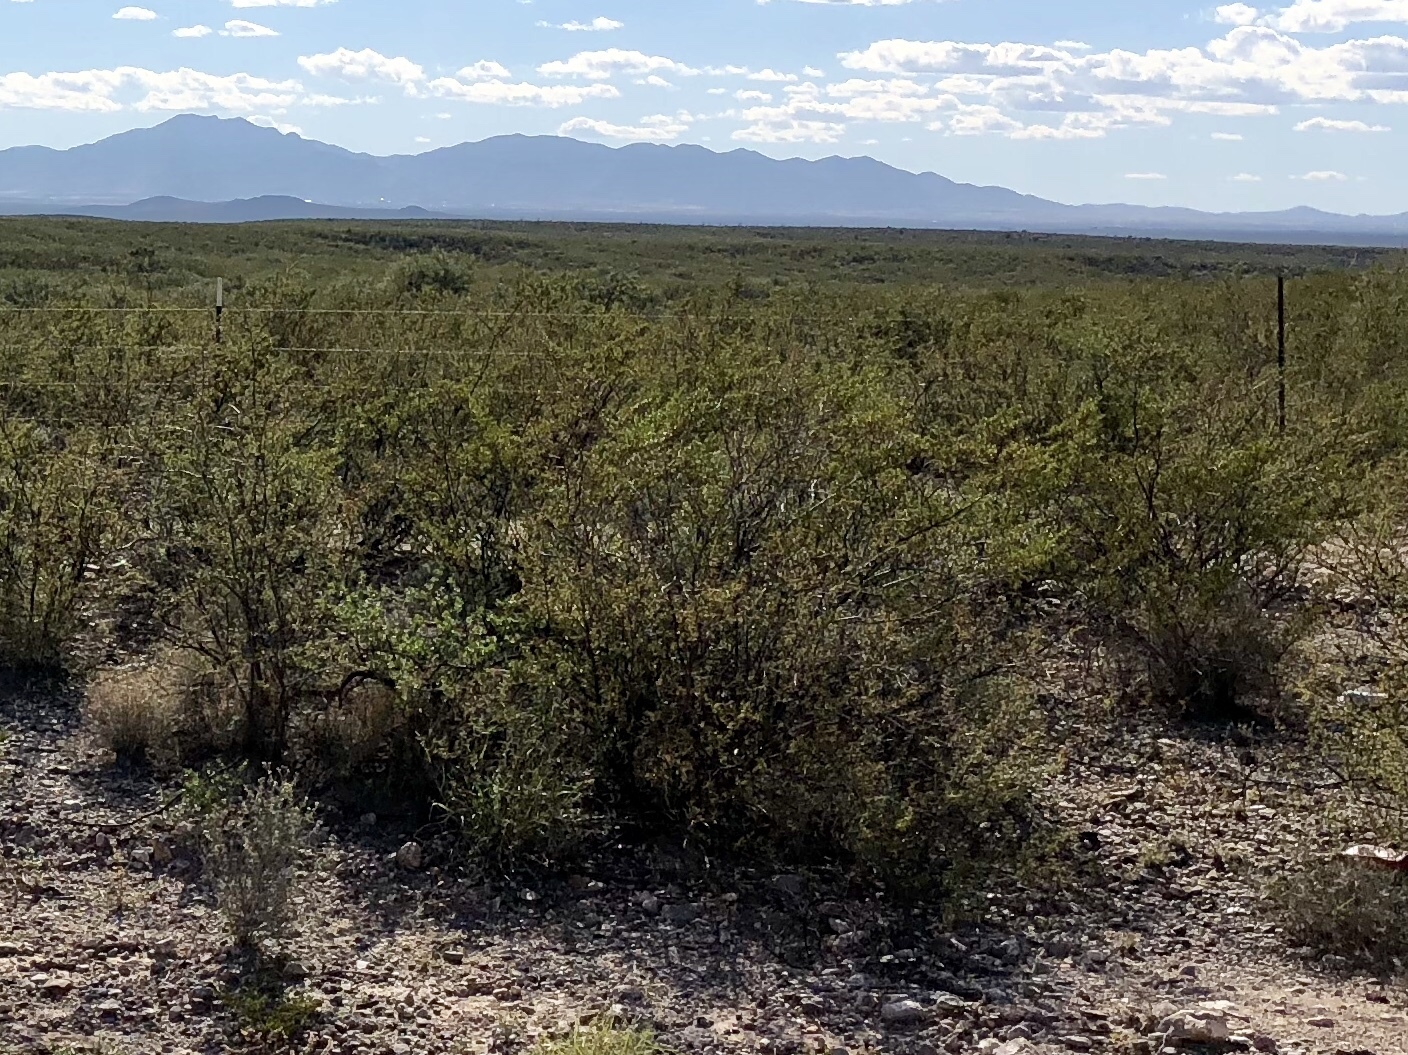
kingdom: Plantae
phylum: Tracheophyta
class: Magnoliopsida
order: Zygophyllales
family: Zygophyllaceae
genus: Larrea
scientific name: Larrea tridentata
